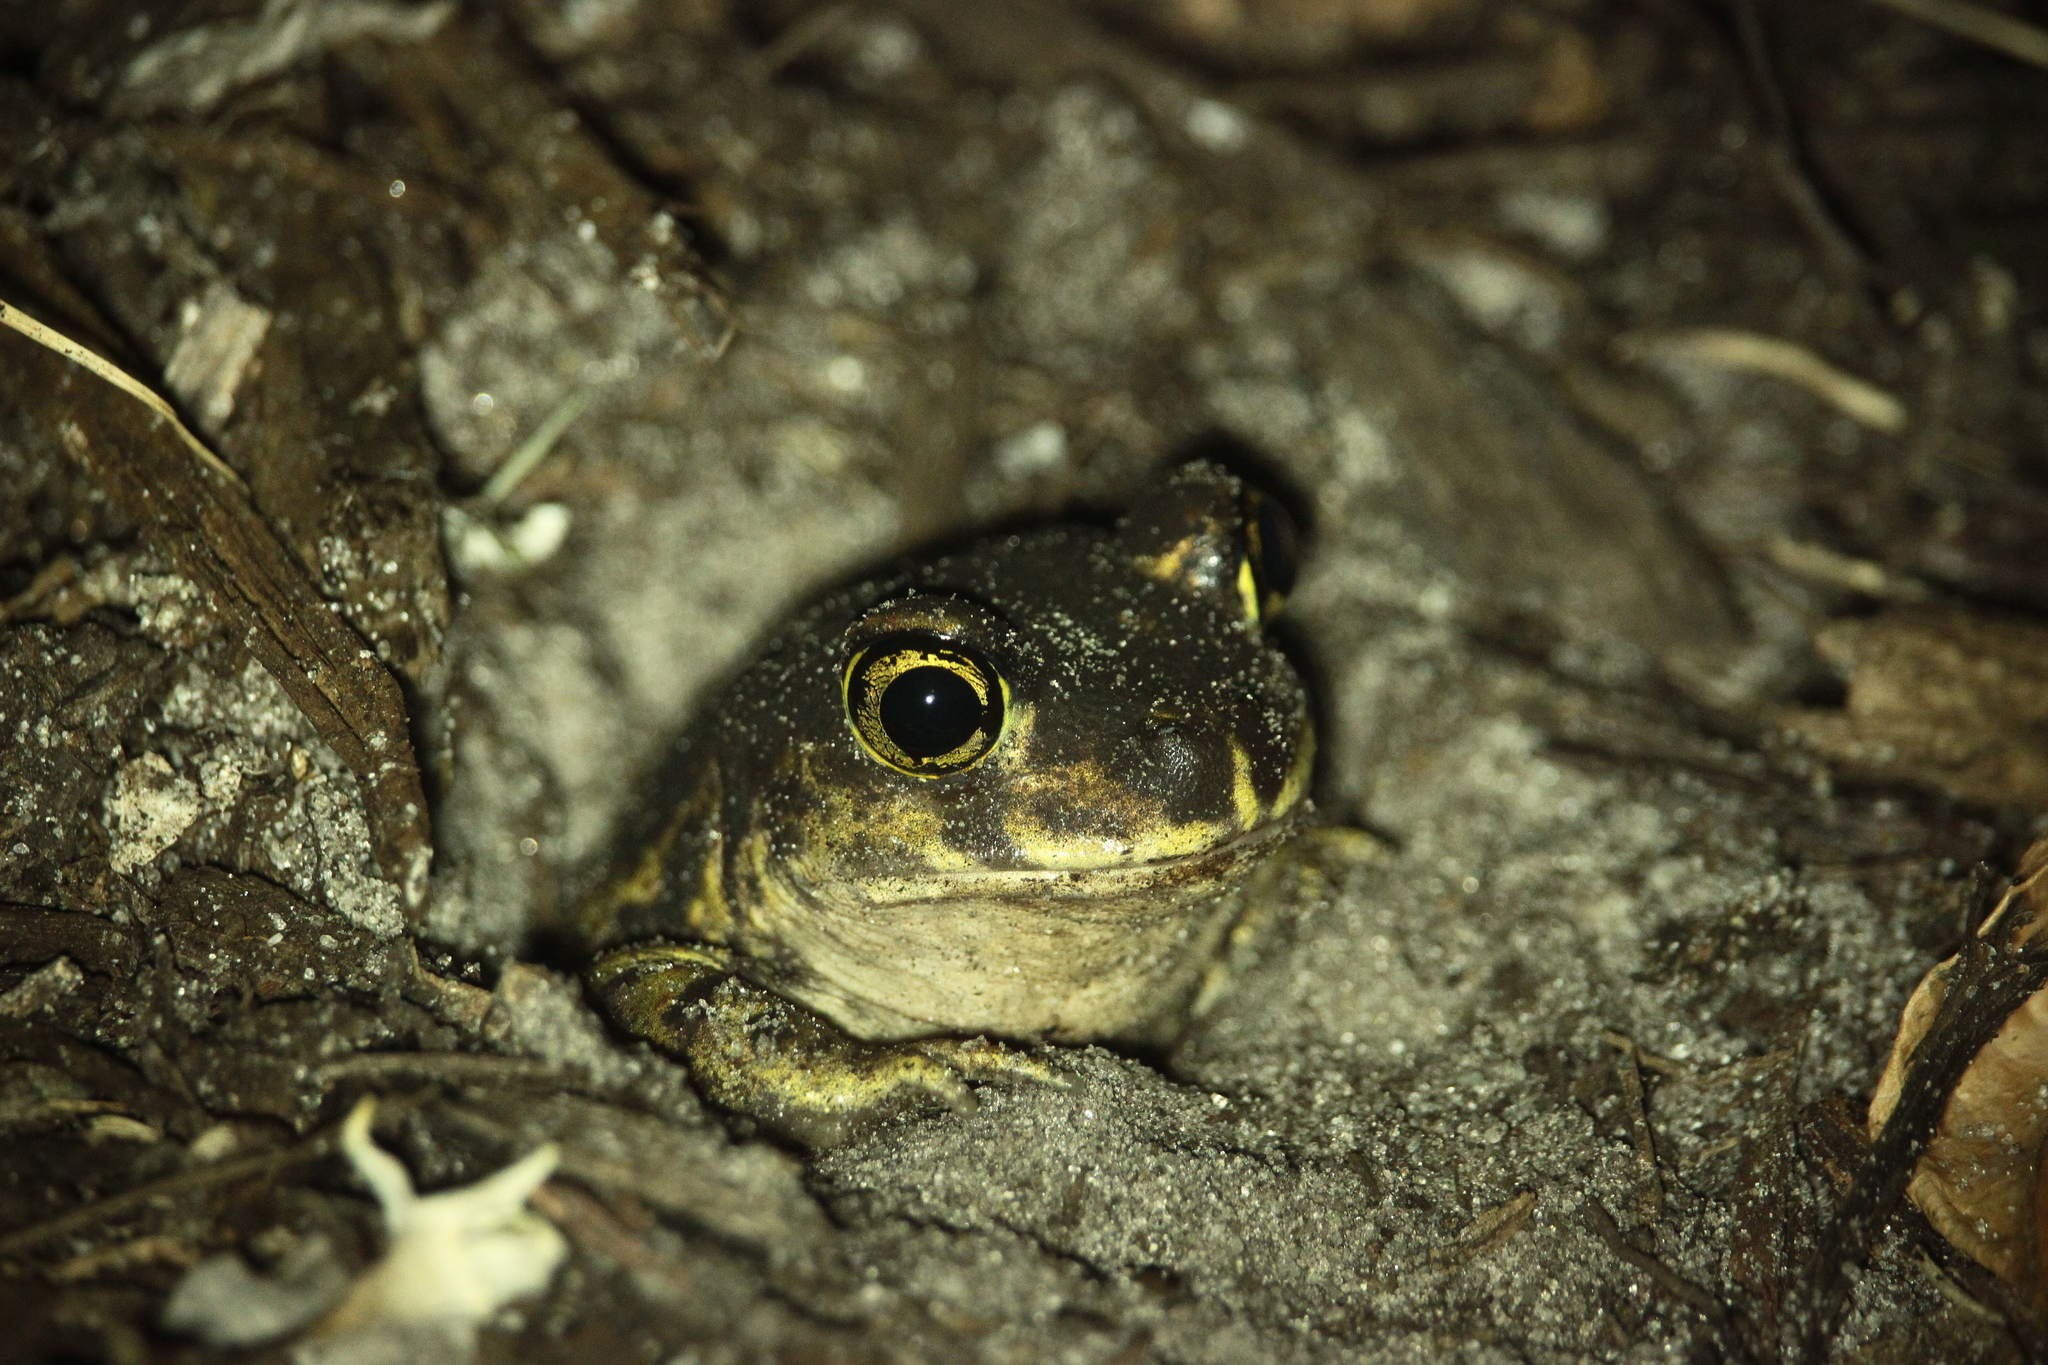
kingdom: Animalia
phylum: Chordata
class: Amphibia
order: Anura
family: Scaphiopodidae
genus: Scaphiopus
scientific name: Scaphiopus holbrookii
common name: Eastern spadefoot toad
